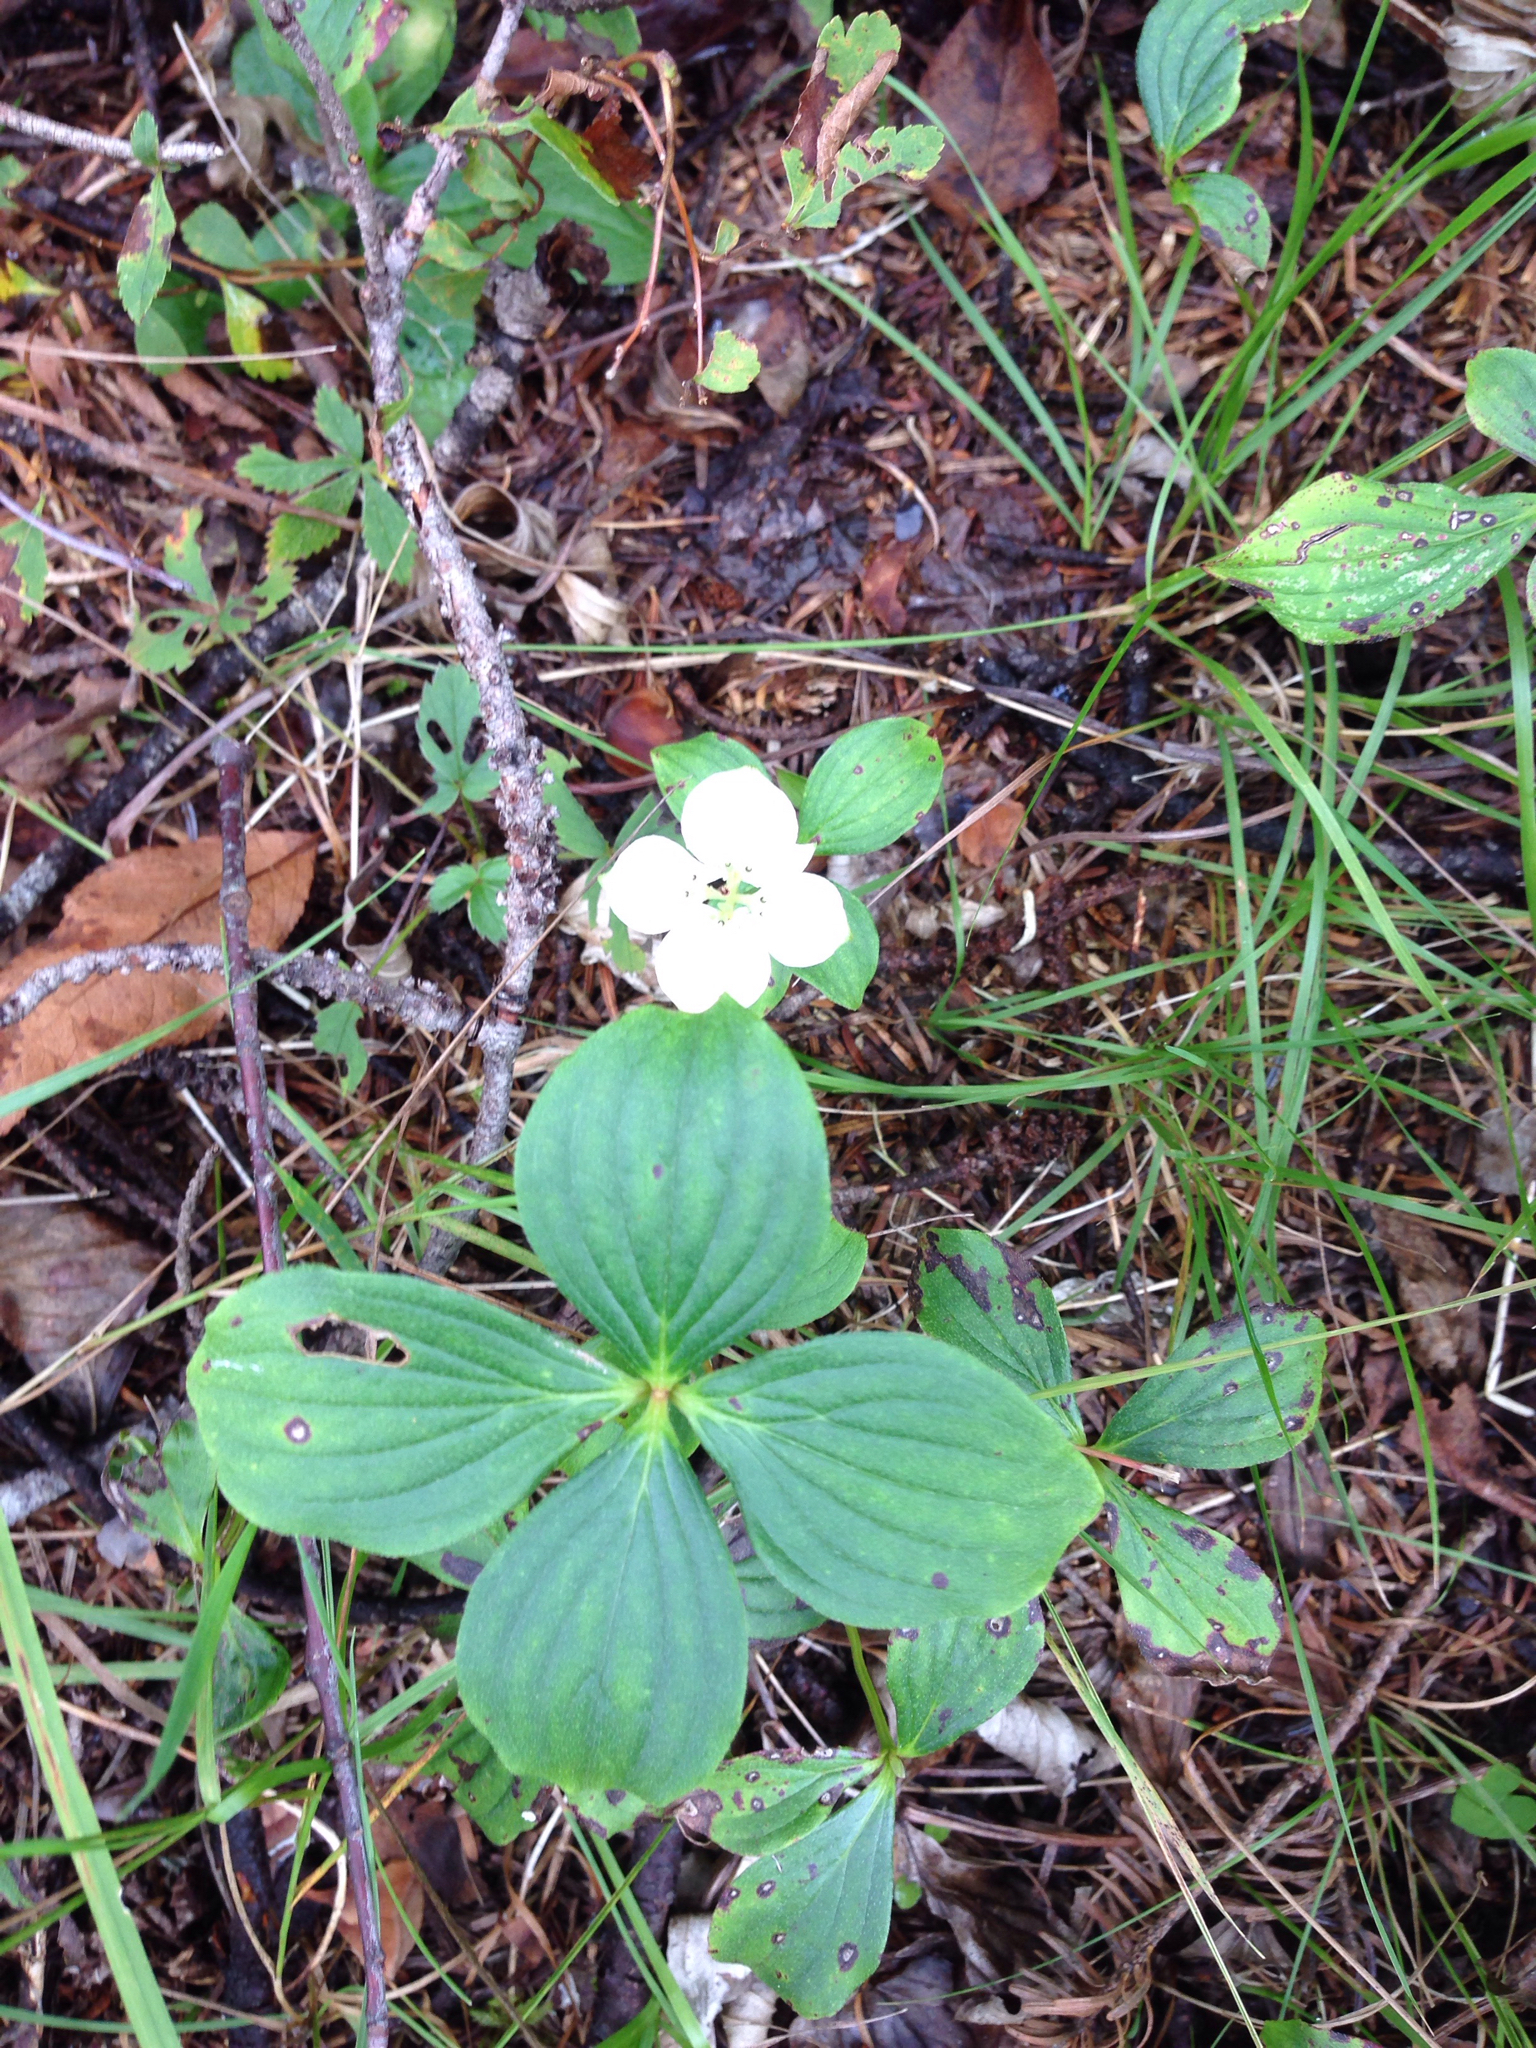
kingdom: Plantae
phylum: Tracheophyta
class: Magnoliopsida
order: Cornales
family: Cornaceae
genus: Cornus
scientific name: Cornus canadensis
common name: Creeping dogwood
